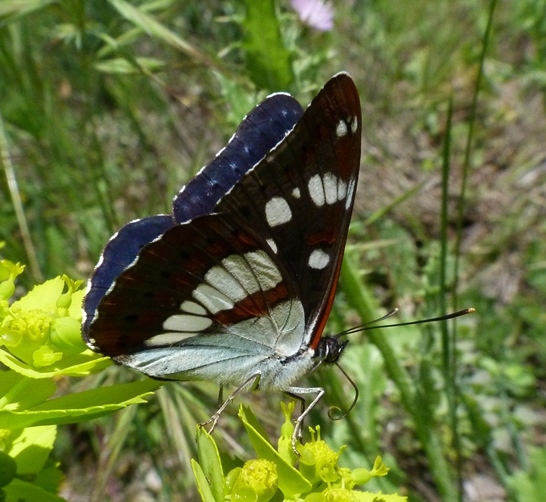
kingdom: Animalia
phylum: Arthropoda
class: Insecta
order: Lepidoptera
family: Nymphalidae
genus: Limenitis
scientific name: Limenitis reducta
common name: Southern white admiral
